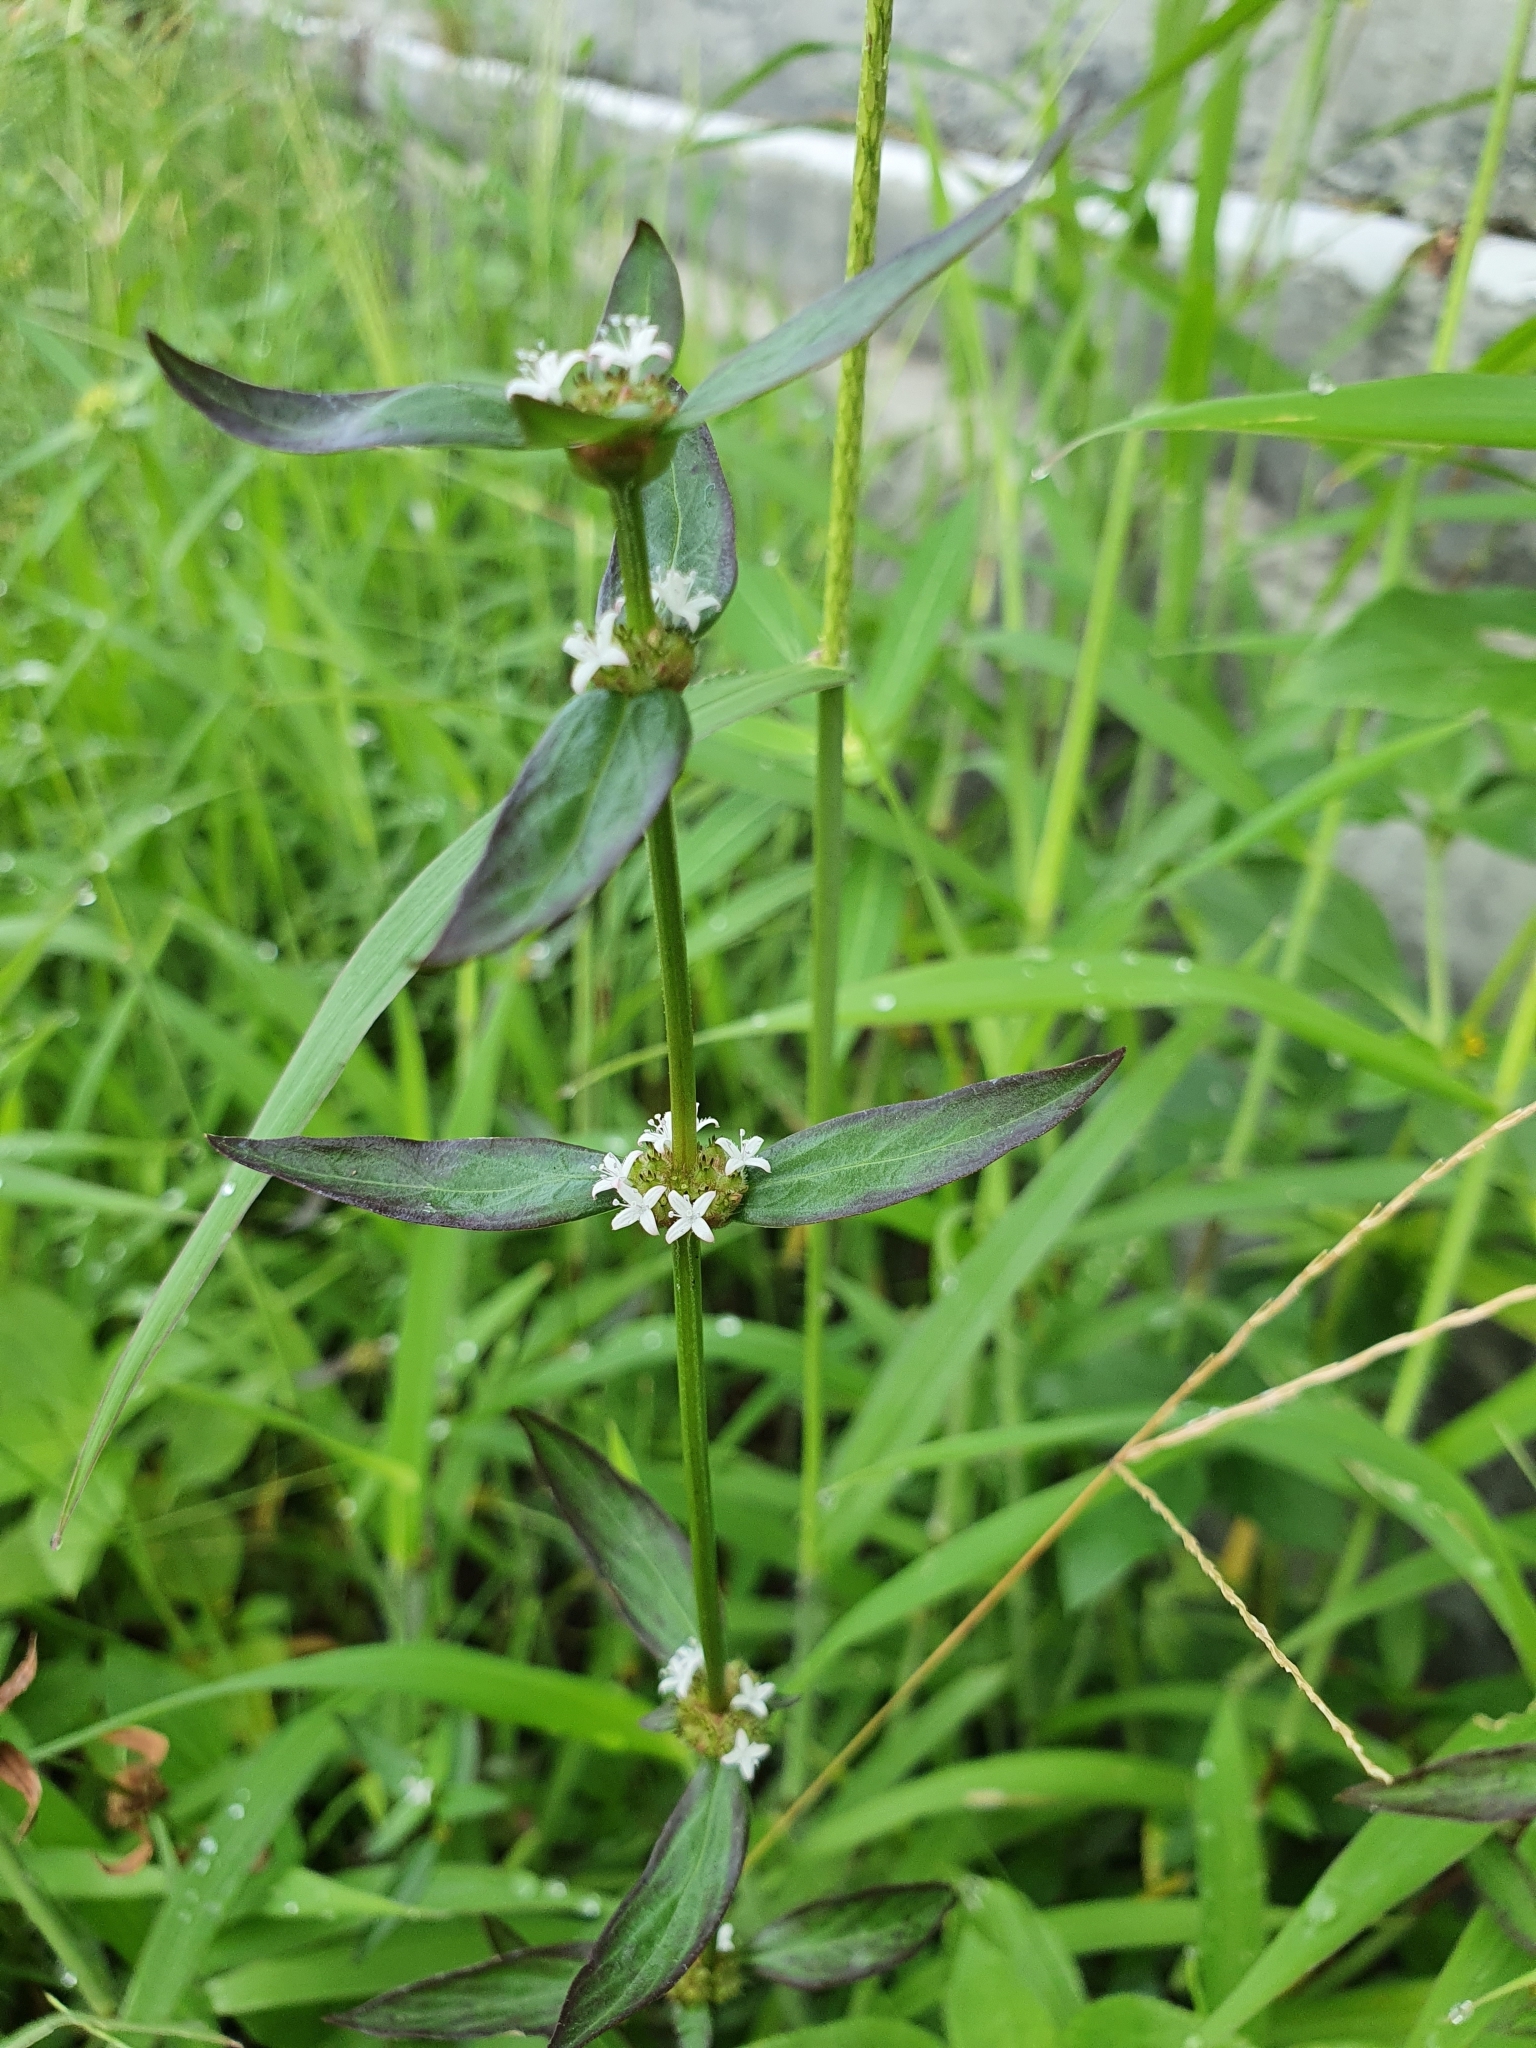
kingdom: Plantae
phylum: Tracheophyta
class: Magnoliopsida
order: Gentianales
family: Rubiaceae
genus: Spermacoce
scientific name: Spermacoce remota
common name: Woodland false buttonweed
